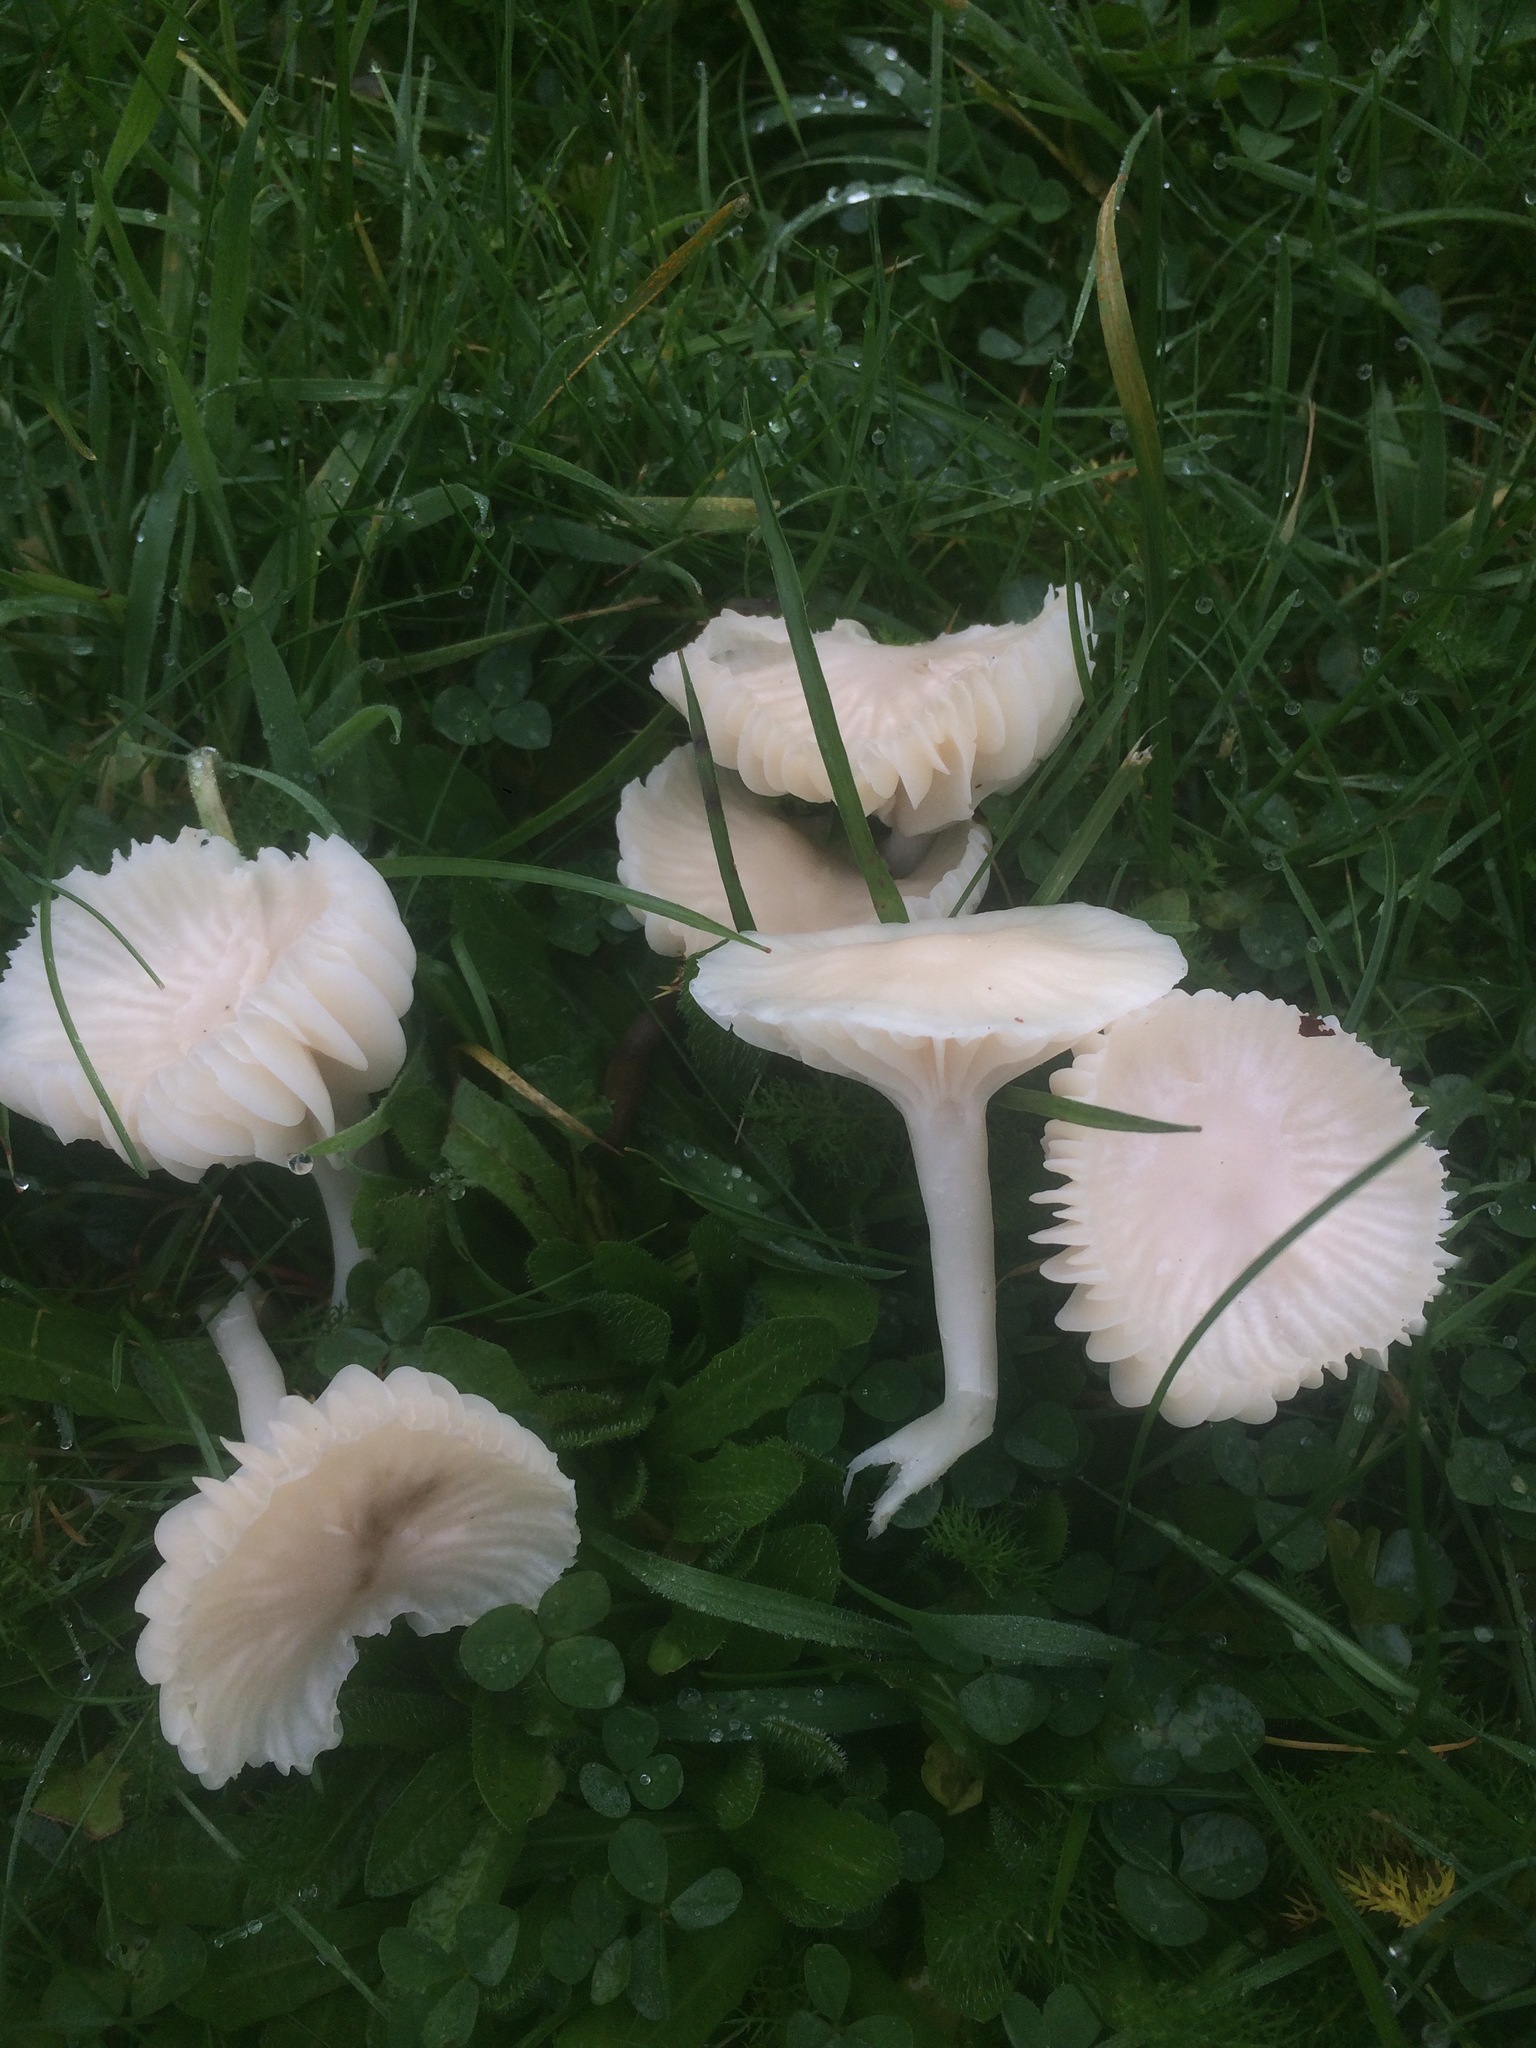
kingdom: Fungi
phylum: Basidiomycota
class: Agaricomycetes
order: Agaricales
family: Hygrophoraceae
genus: Cuphophyllus
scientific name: Cuphophyllus virgineus
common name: Snowy waxcap
